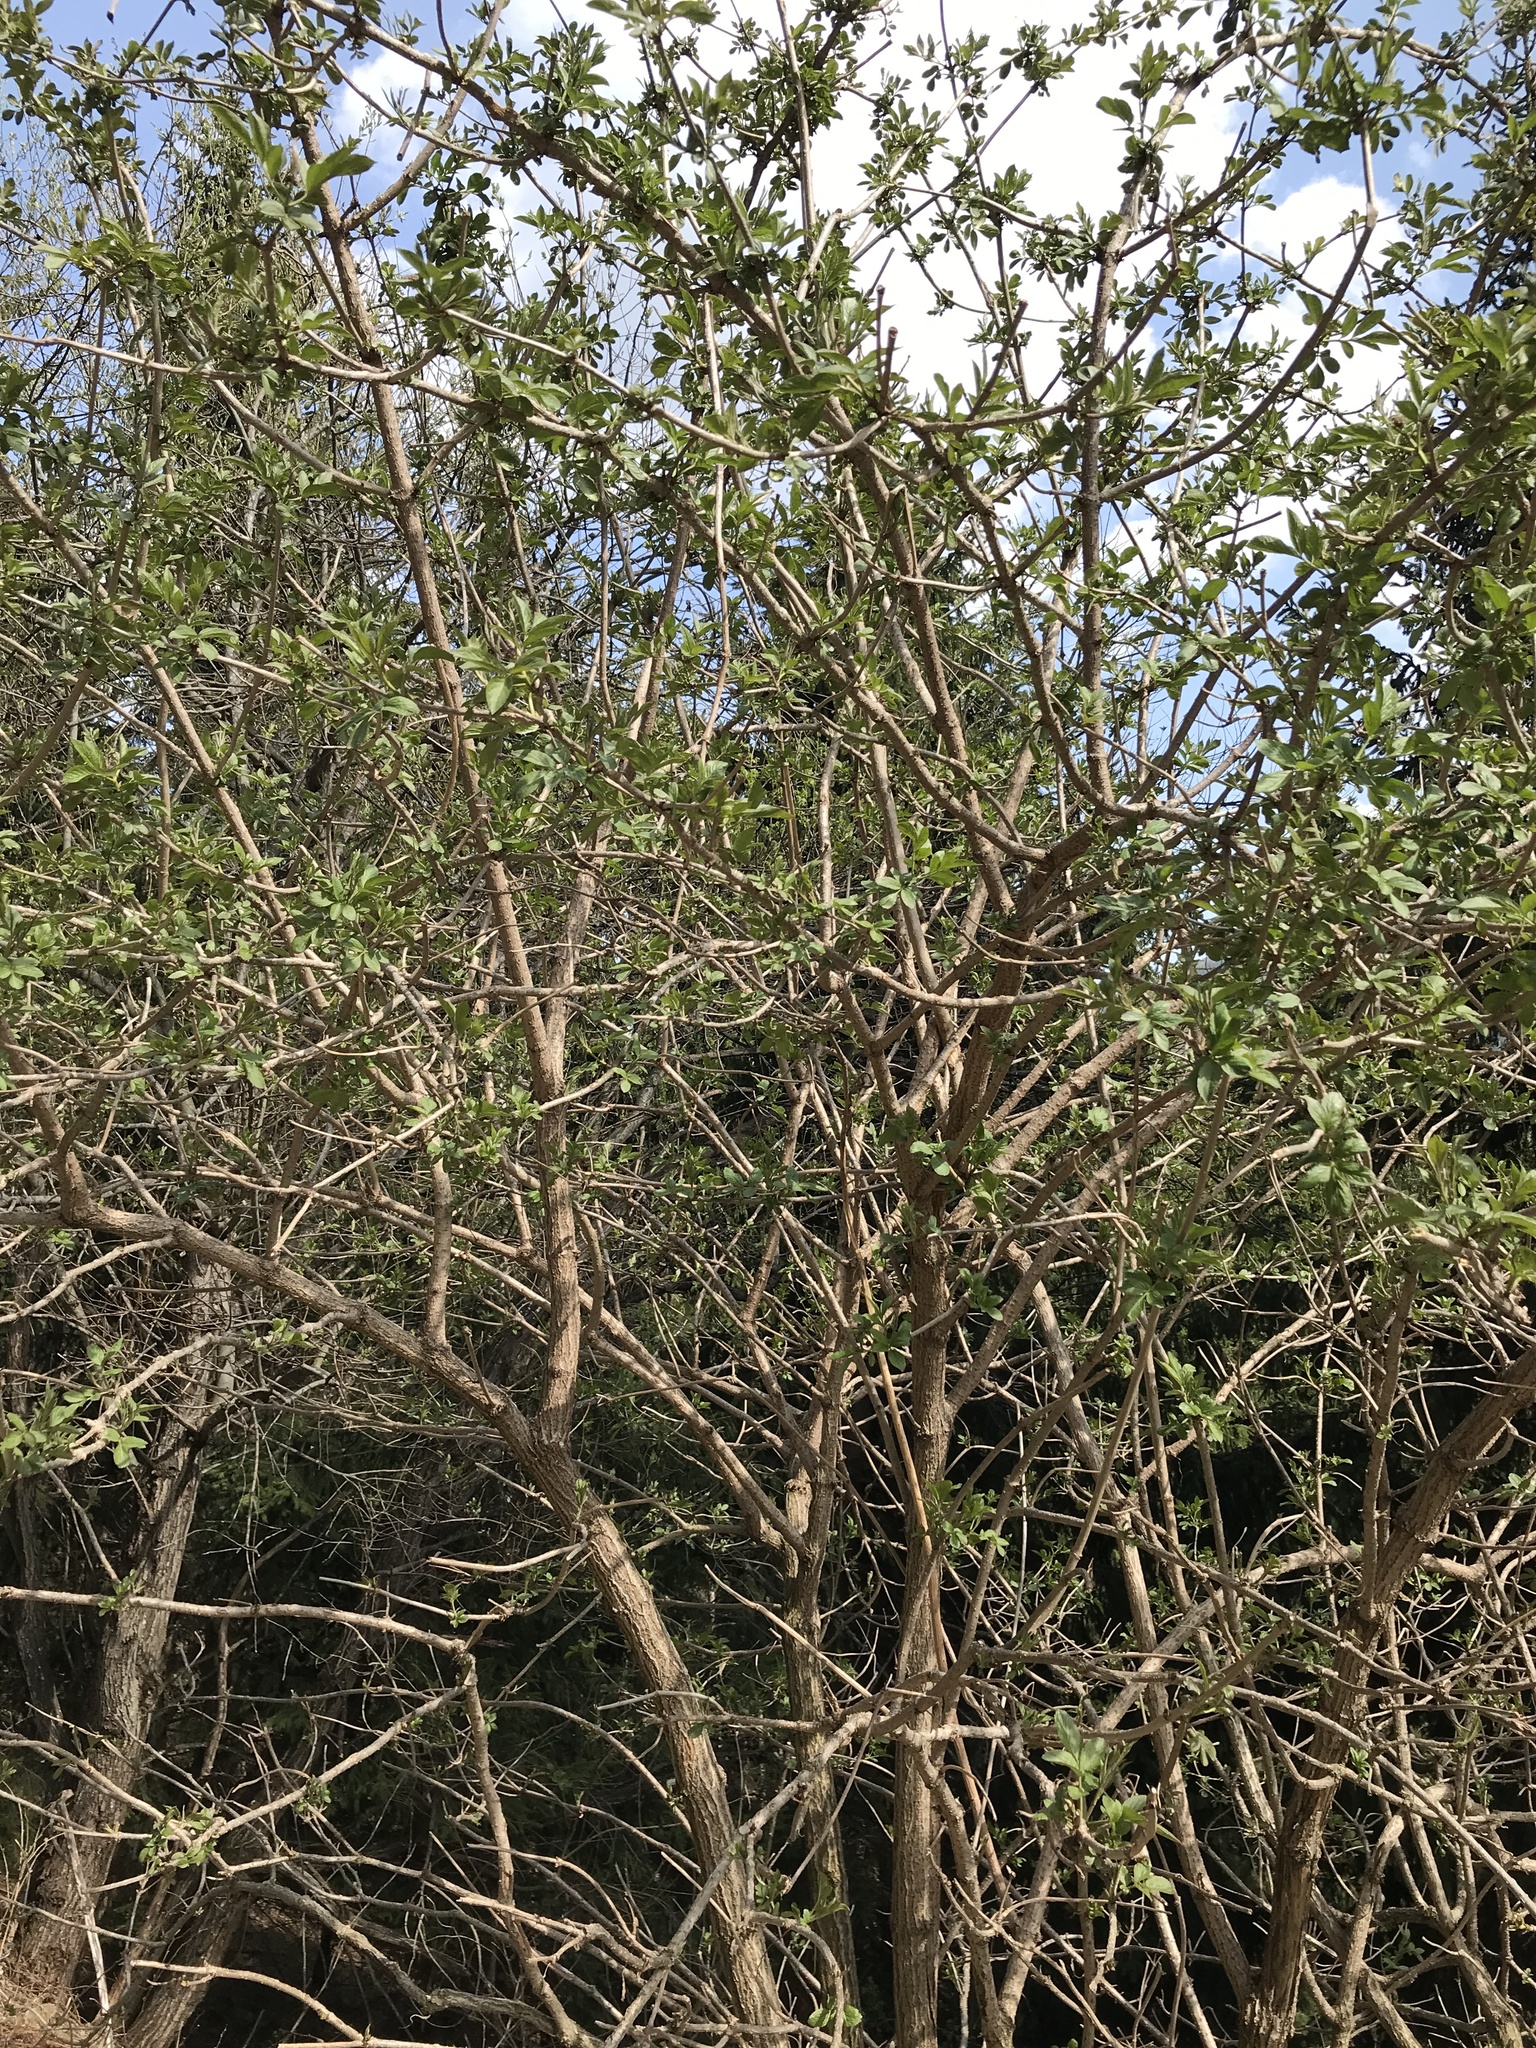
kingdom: Plantae
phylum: Tracheophyta
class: Magnoliopsida
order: Dipsacales
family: Viburnaceae
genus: Sambucus
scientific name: Sambucus nigra
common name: Elder
